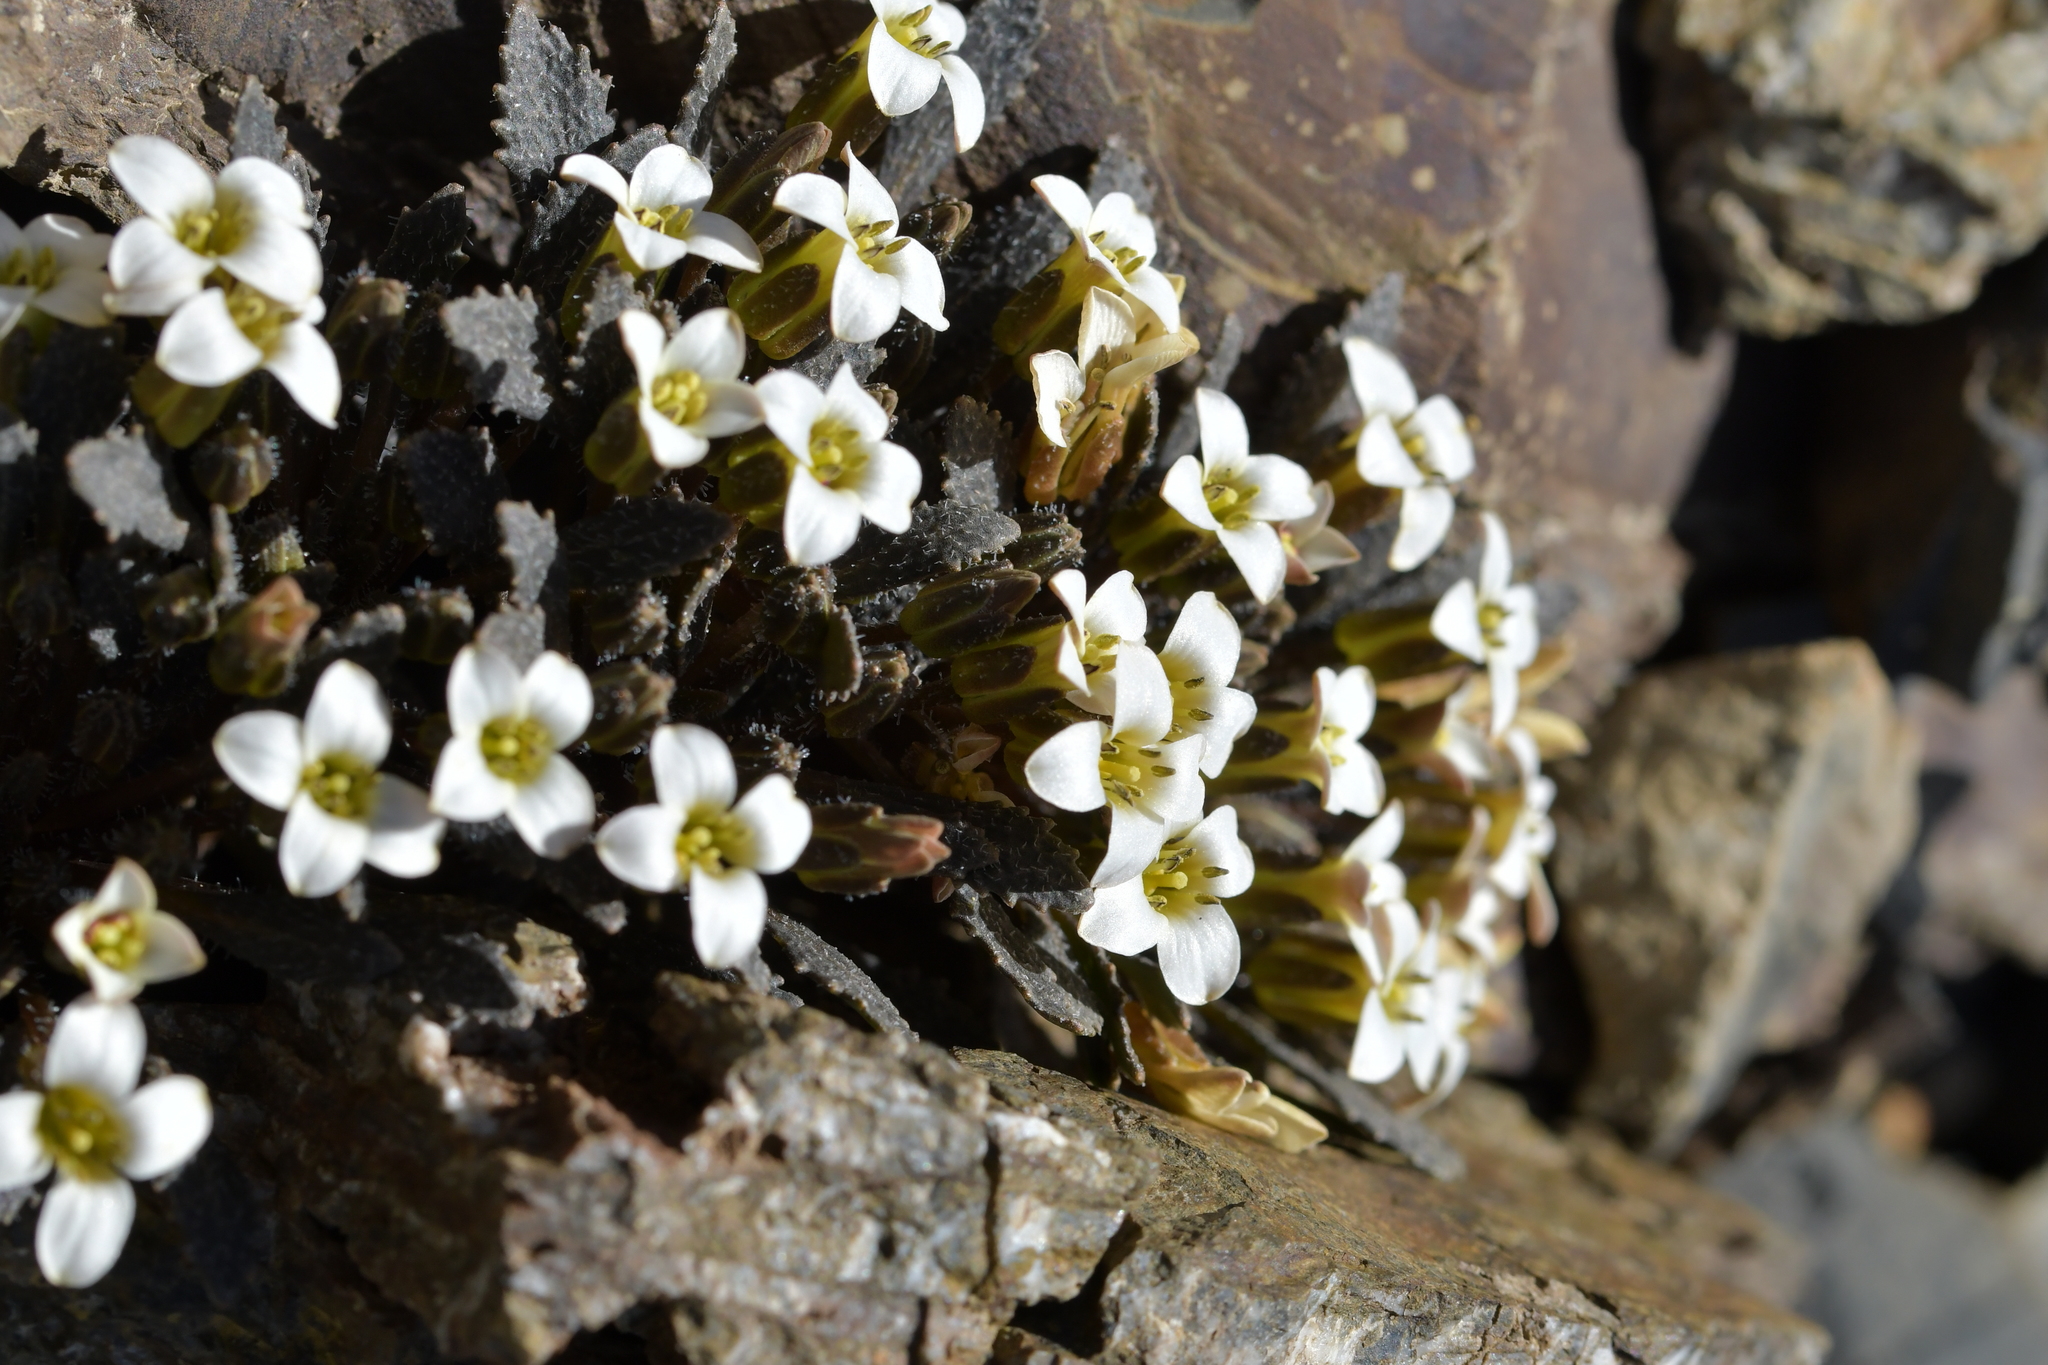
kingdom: Plantae
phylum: Tracheophyta
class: Magnoliopsida
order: Brassicales
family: Brassicaceae
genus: Notothlaspi
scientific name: Notothlaspi australe
